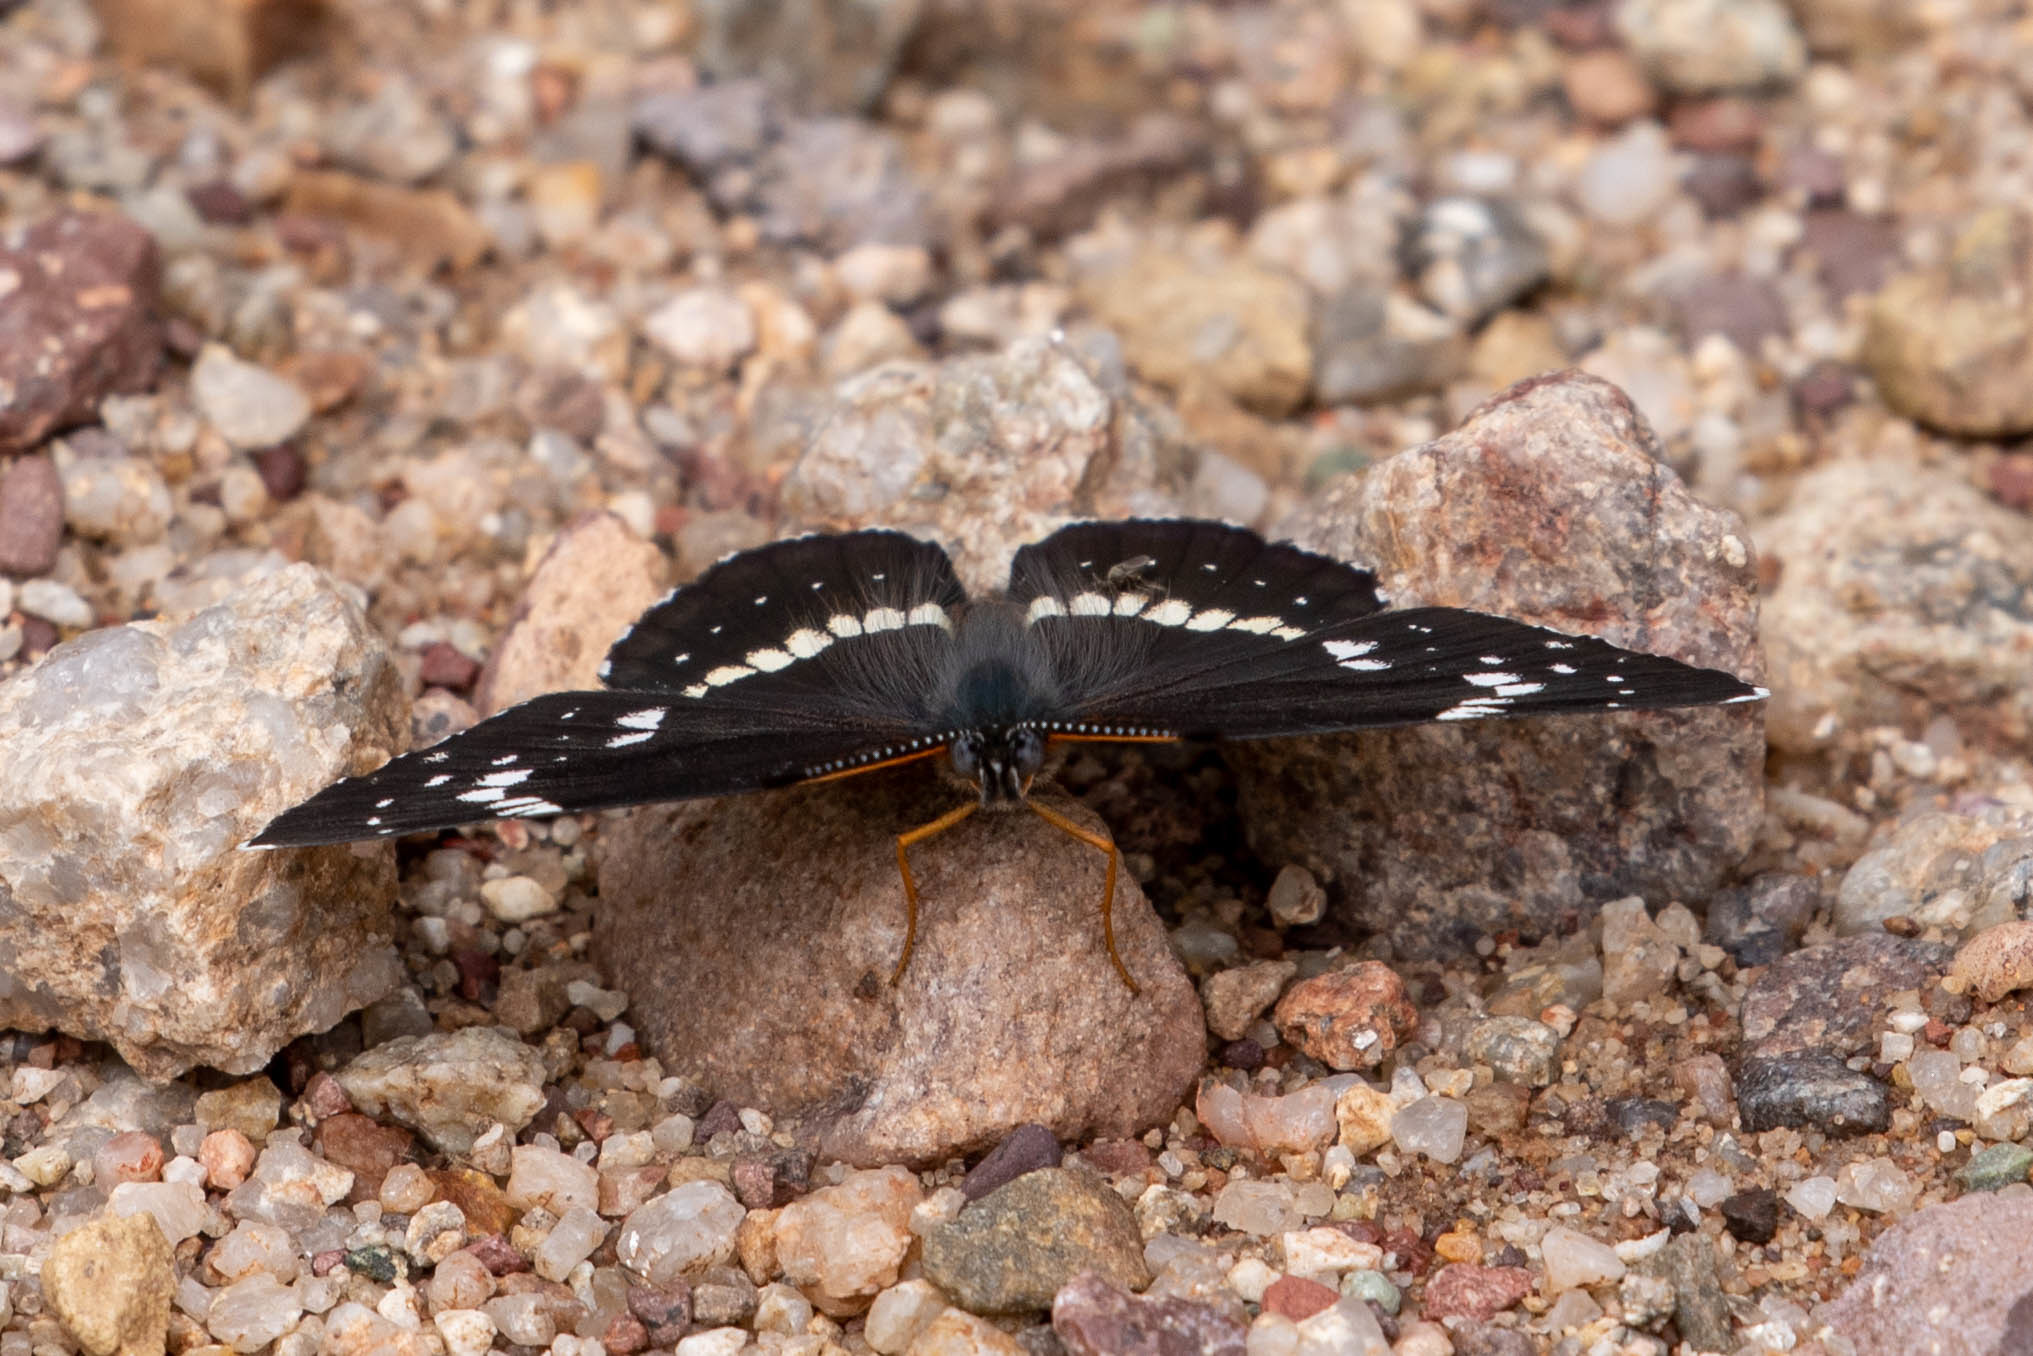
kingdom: Animalia
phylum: Arthropoda
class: Insecta
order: Lepidoptera
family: Nymphalidae
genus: Chlosyne
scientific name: Chlosyne lacinia
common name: Bordered patch
